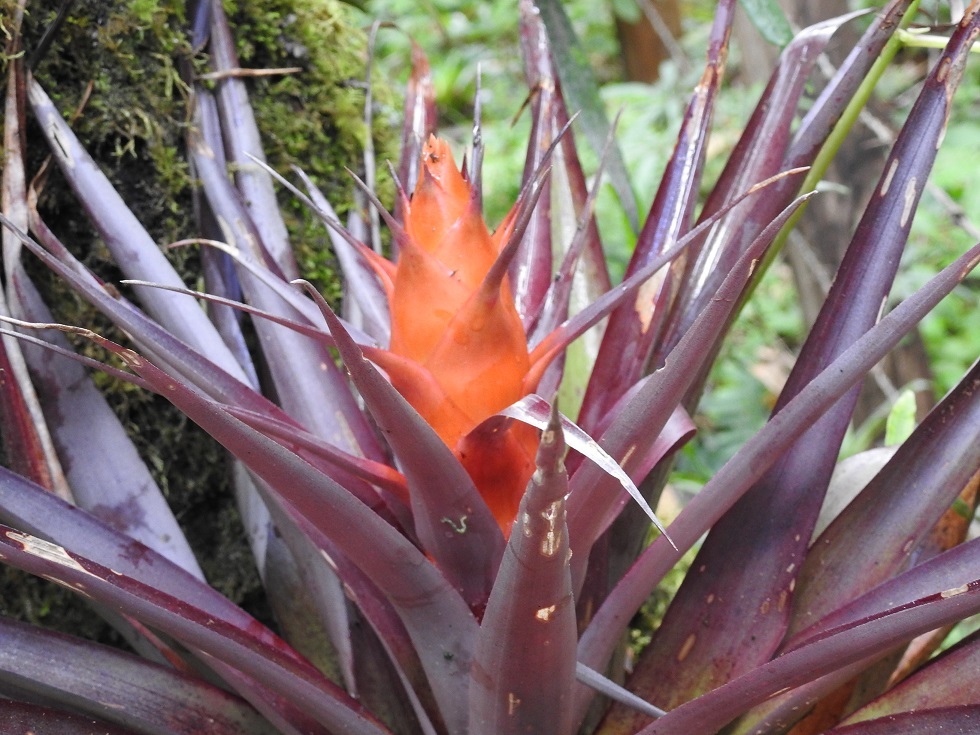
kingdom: Plantae
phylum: Tracheophyta
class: Liliopsida
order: Poales
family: Bromeliaceae
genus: Tillandsia
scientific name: Tillandsia ponderosa
